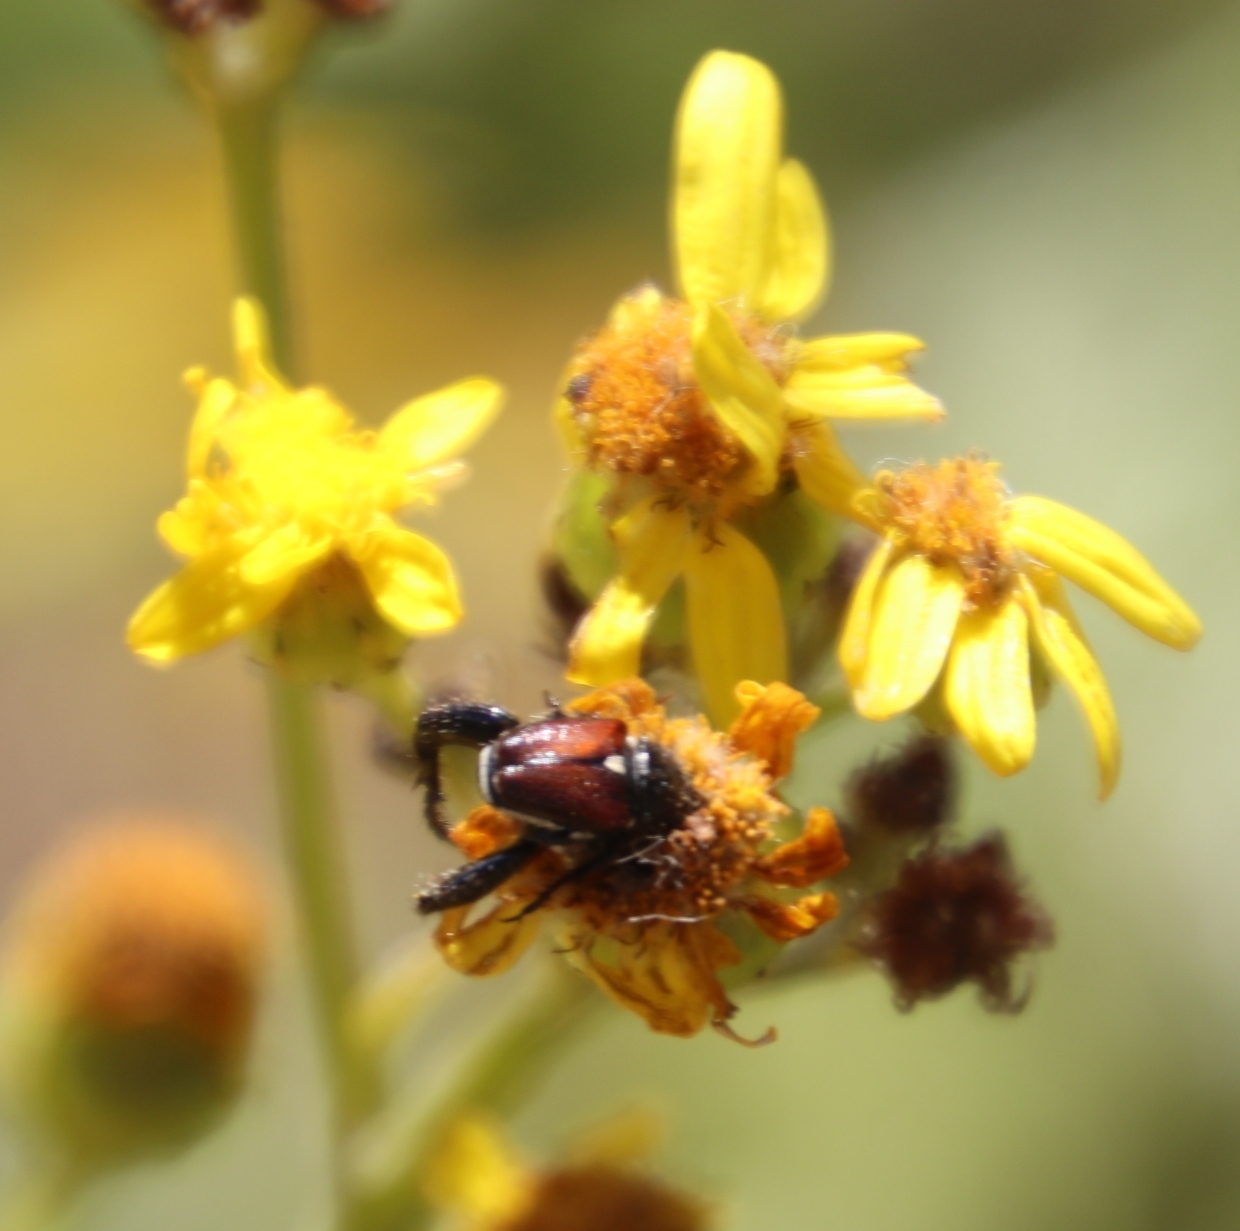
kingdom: Plantae
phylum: Tracheophyta
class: Magnoliopsida
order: Asterales
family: Asteraceae
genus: Senecio
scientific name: Senecio pterophorus
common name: Shoddy ragwort
